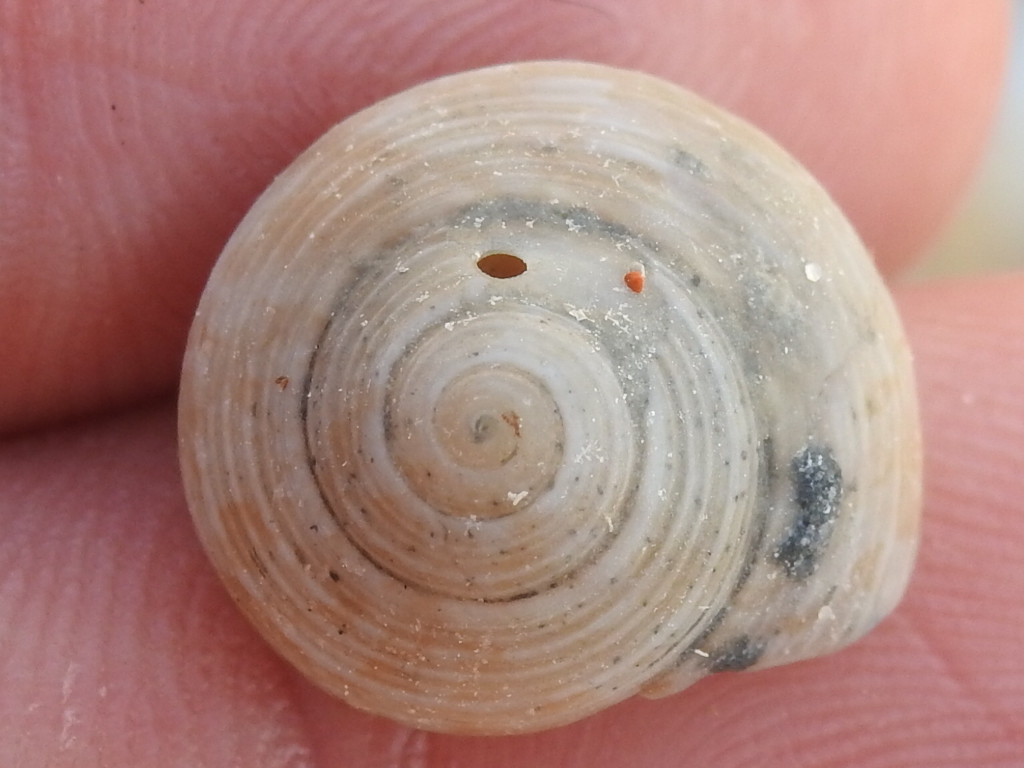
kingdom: Animalia
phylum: Mollusca
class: Gastropoda
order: Trochida
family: Tegulidae
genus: Agathistoma
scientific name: Agathistoma fasciatum
